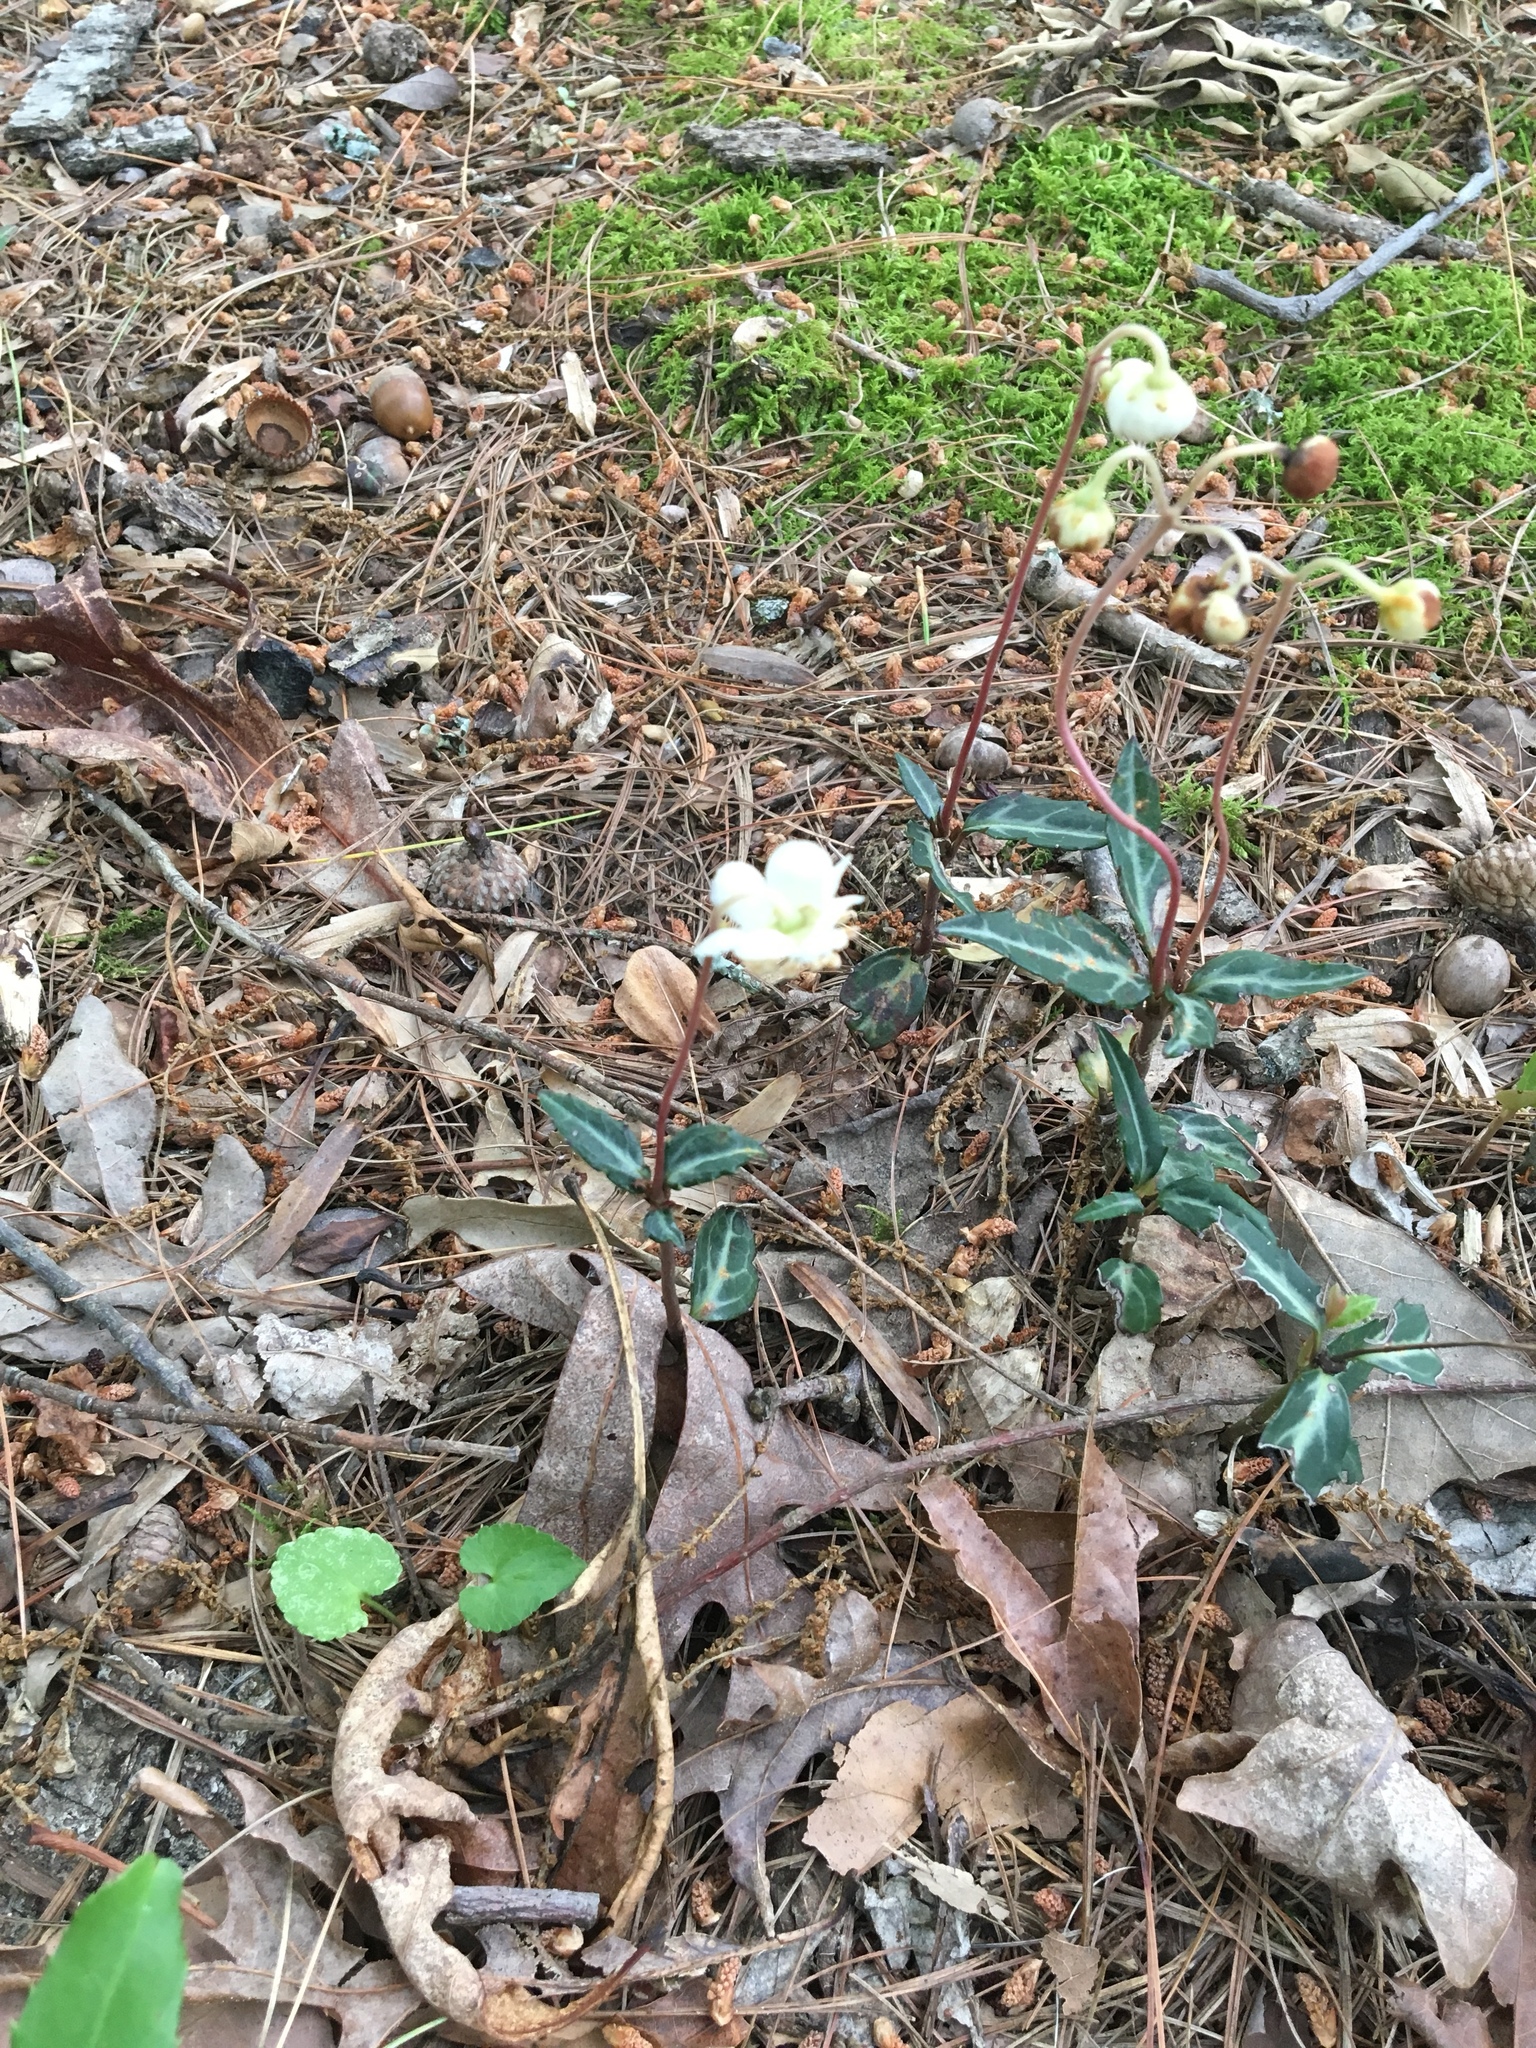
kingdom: Plantae
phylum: Tracheophyta
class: Magnoliopsida
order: Ericales
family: Ericaceae
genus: Chimaphila
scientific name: Chimaphila maculata
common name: Spotted pipsissewa
